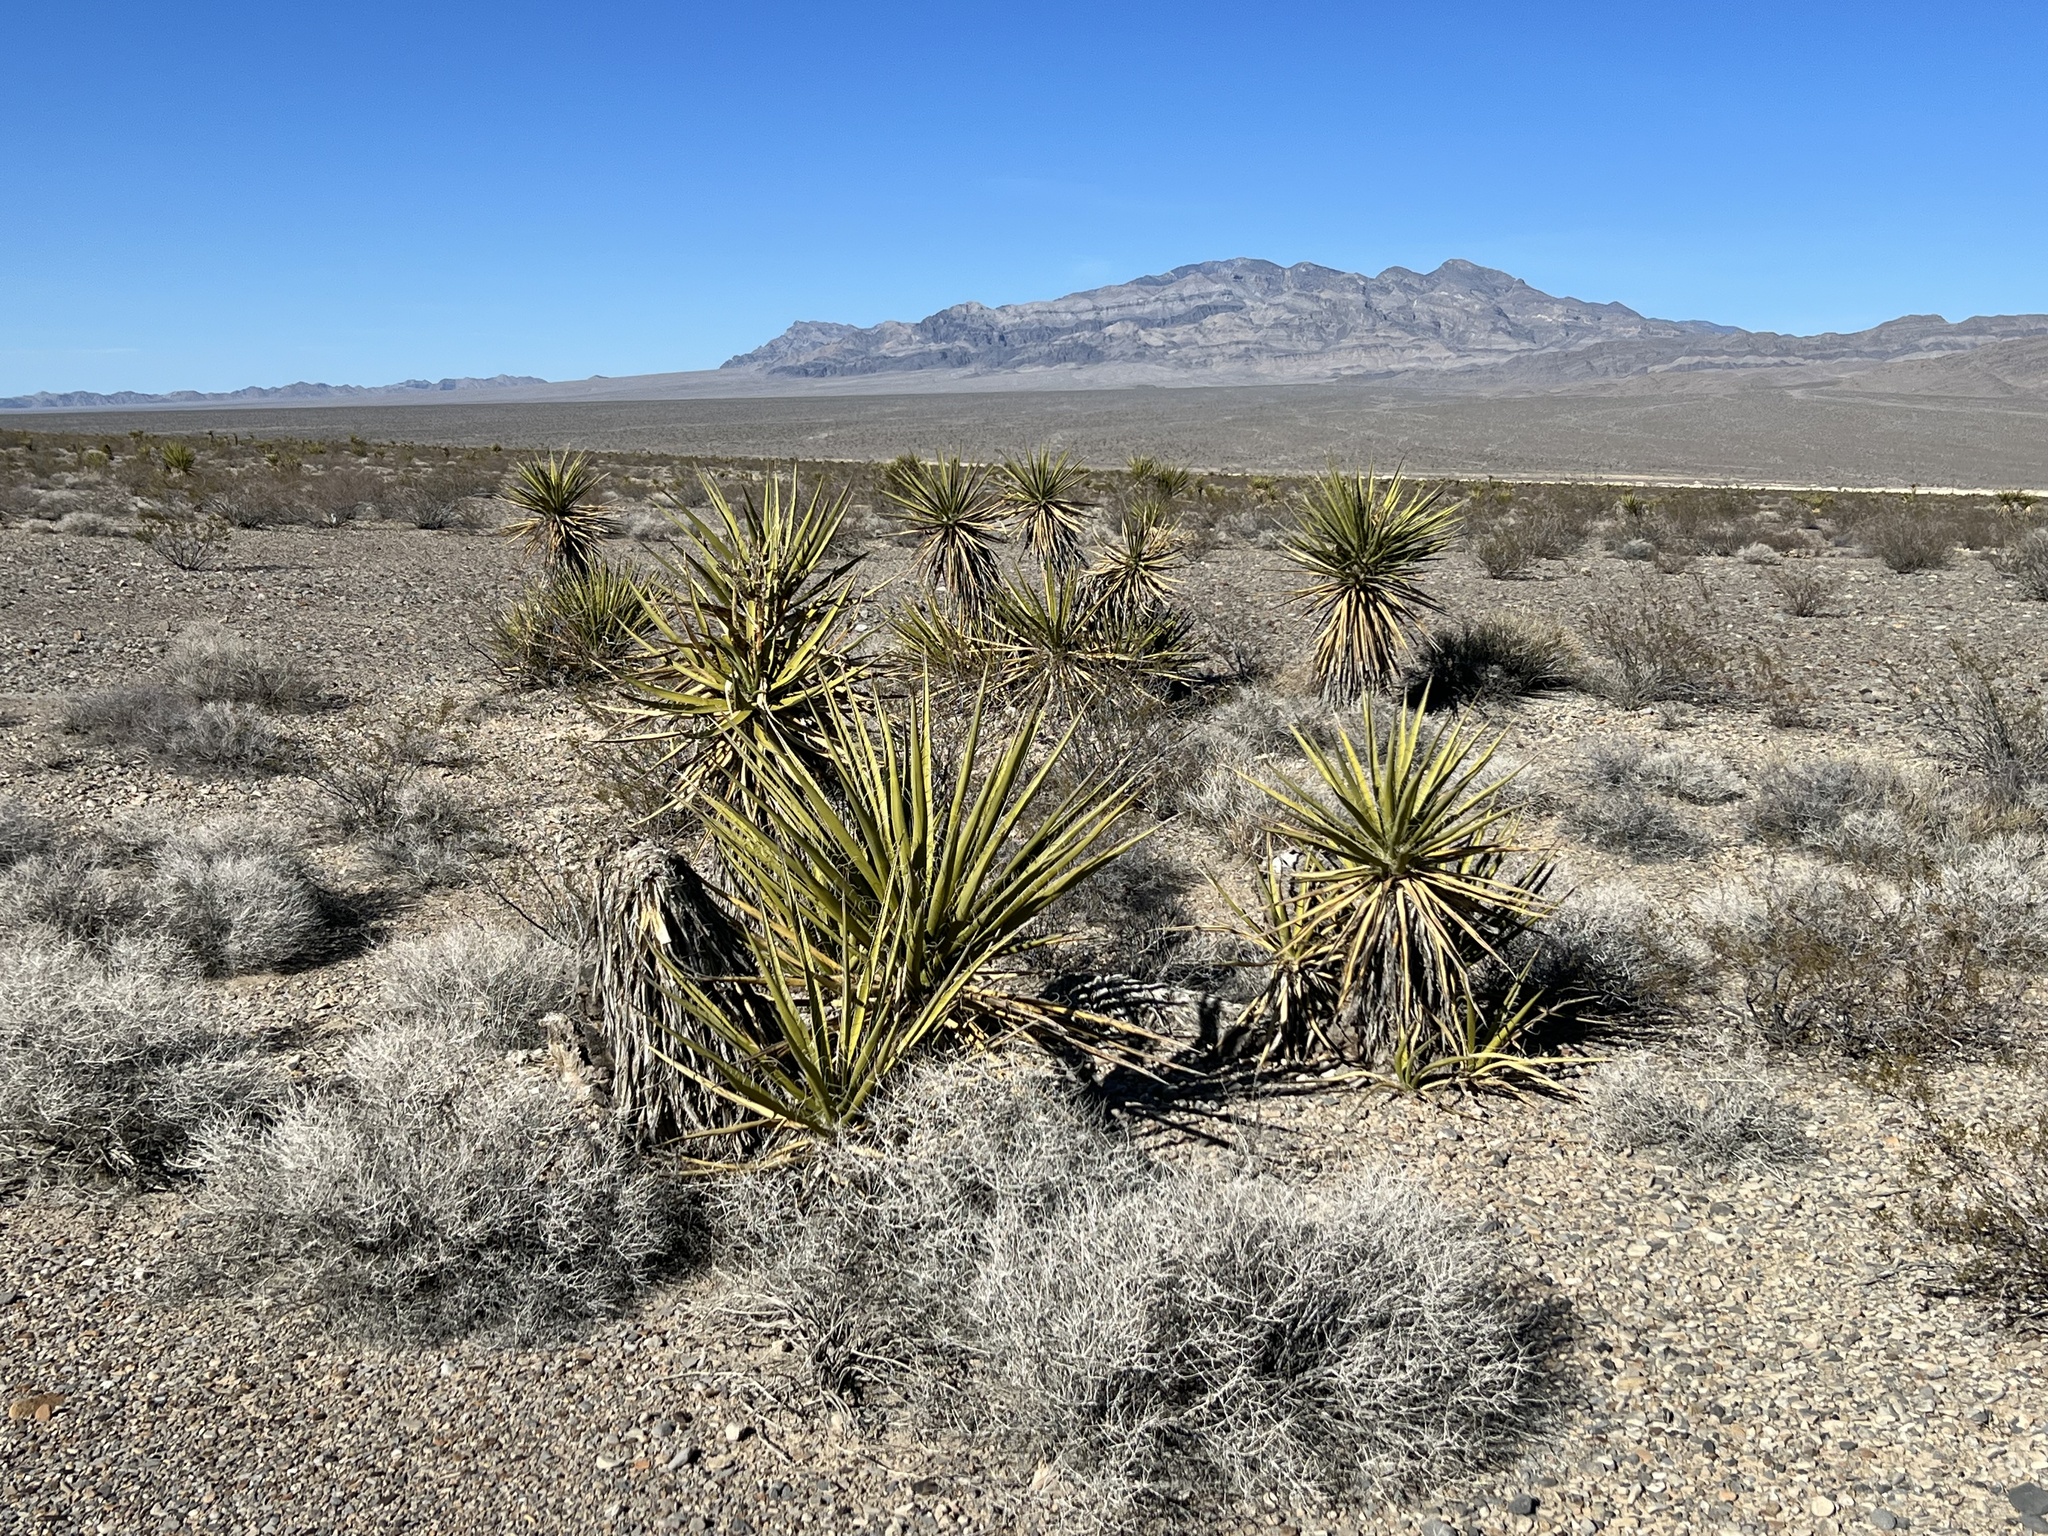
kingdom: Plantae
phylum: Tracheophyta
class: Liliopsida
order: Asparagales
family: Asparagaceae
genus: Yucca
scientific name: Yucca schidigera
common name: Mojave yucca
